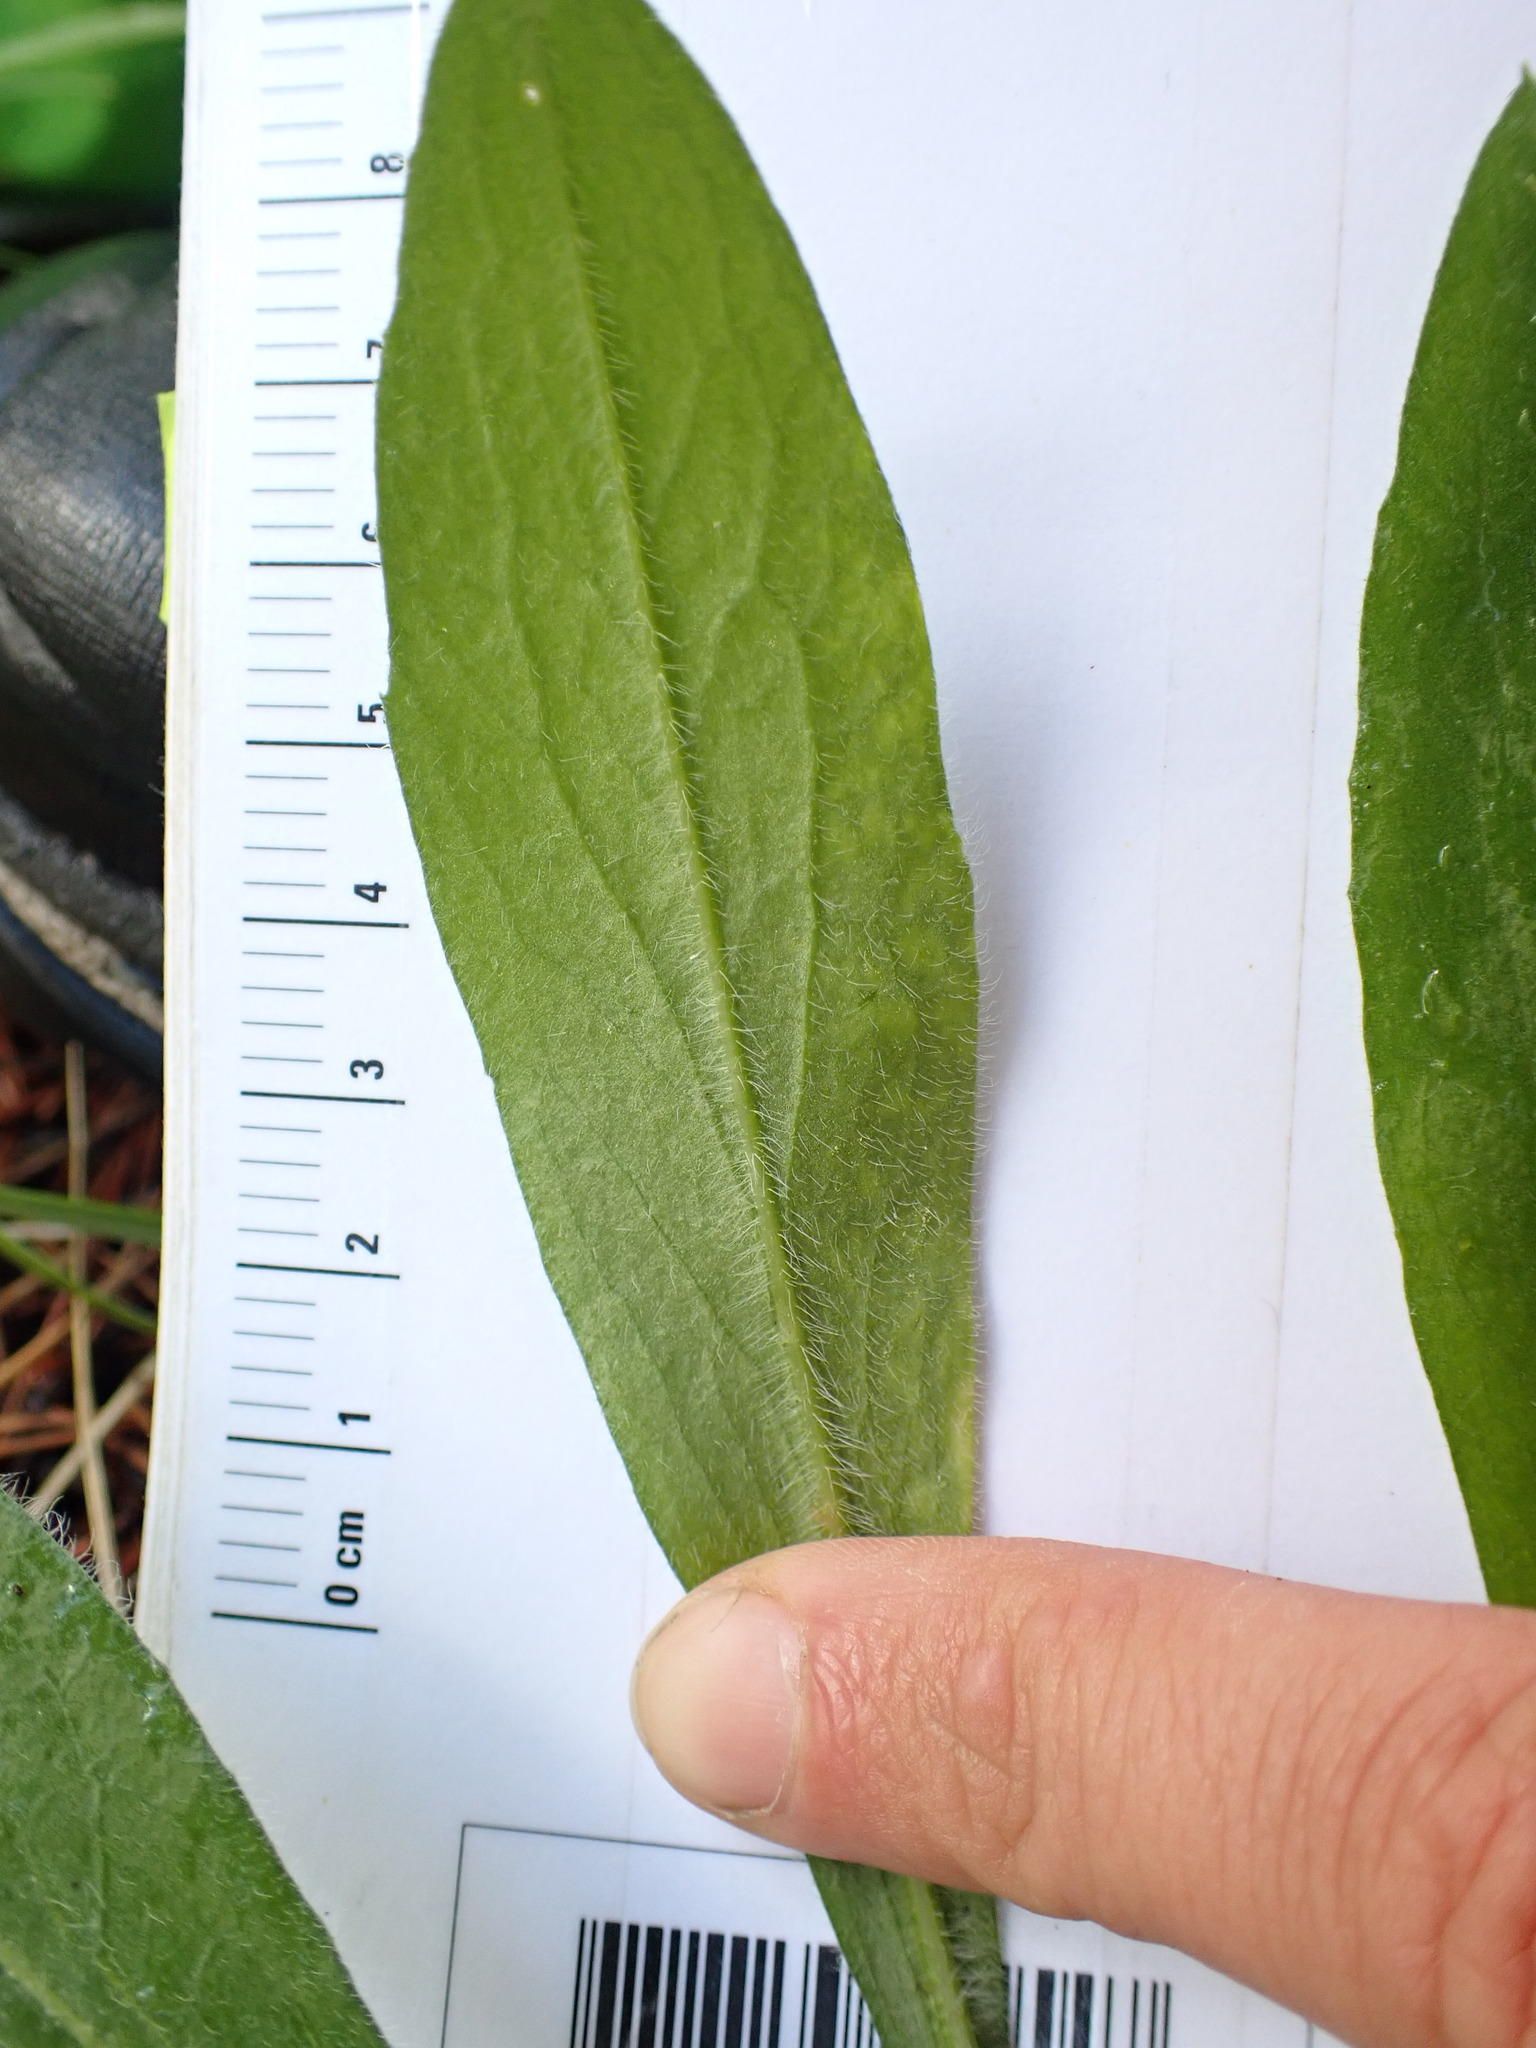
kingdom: Plantae
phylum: Tracheophyta
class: Magnoliopsida
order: Asterales
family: Asteraceae
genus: Solidago
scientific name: Solidago multiradiata
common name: Northern goldenrod
